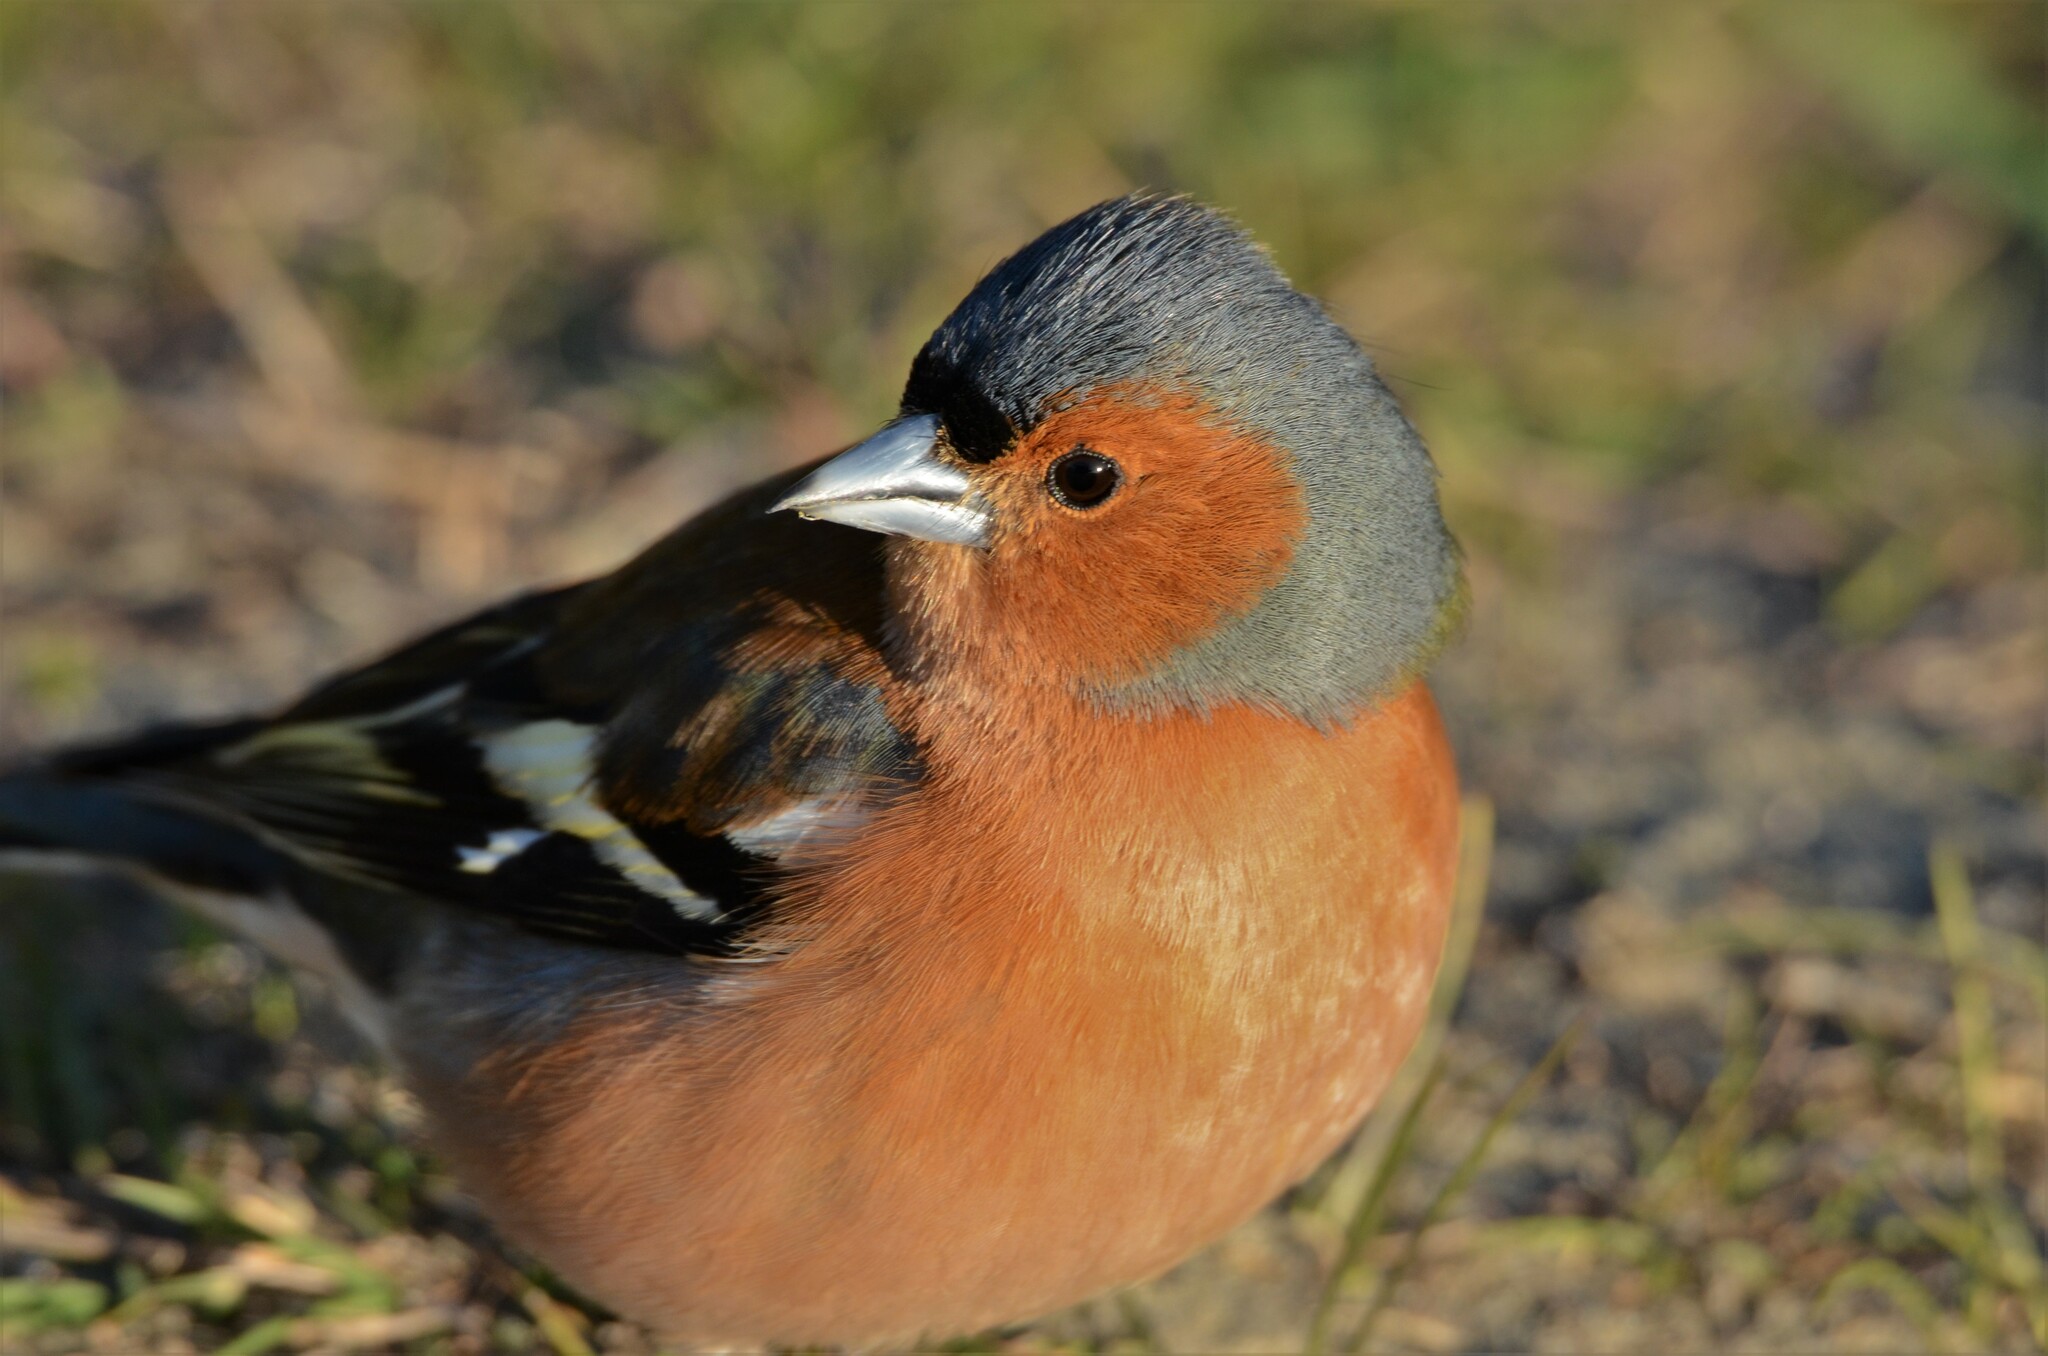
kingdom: Animalia
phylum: Chordata
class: Aves
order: Passeriformes
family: Fringillidae
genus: Fringilla
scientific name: Fringilla coelebs
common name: Common chaffinch
